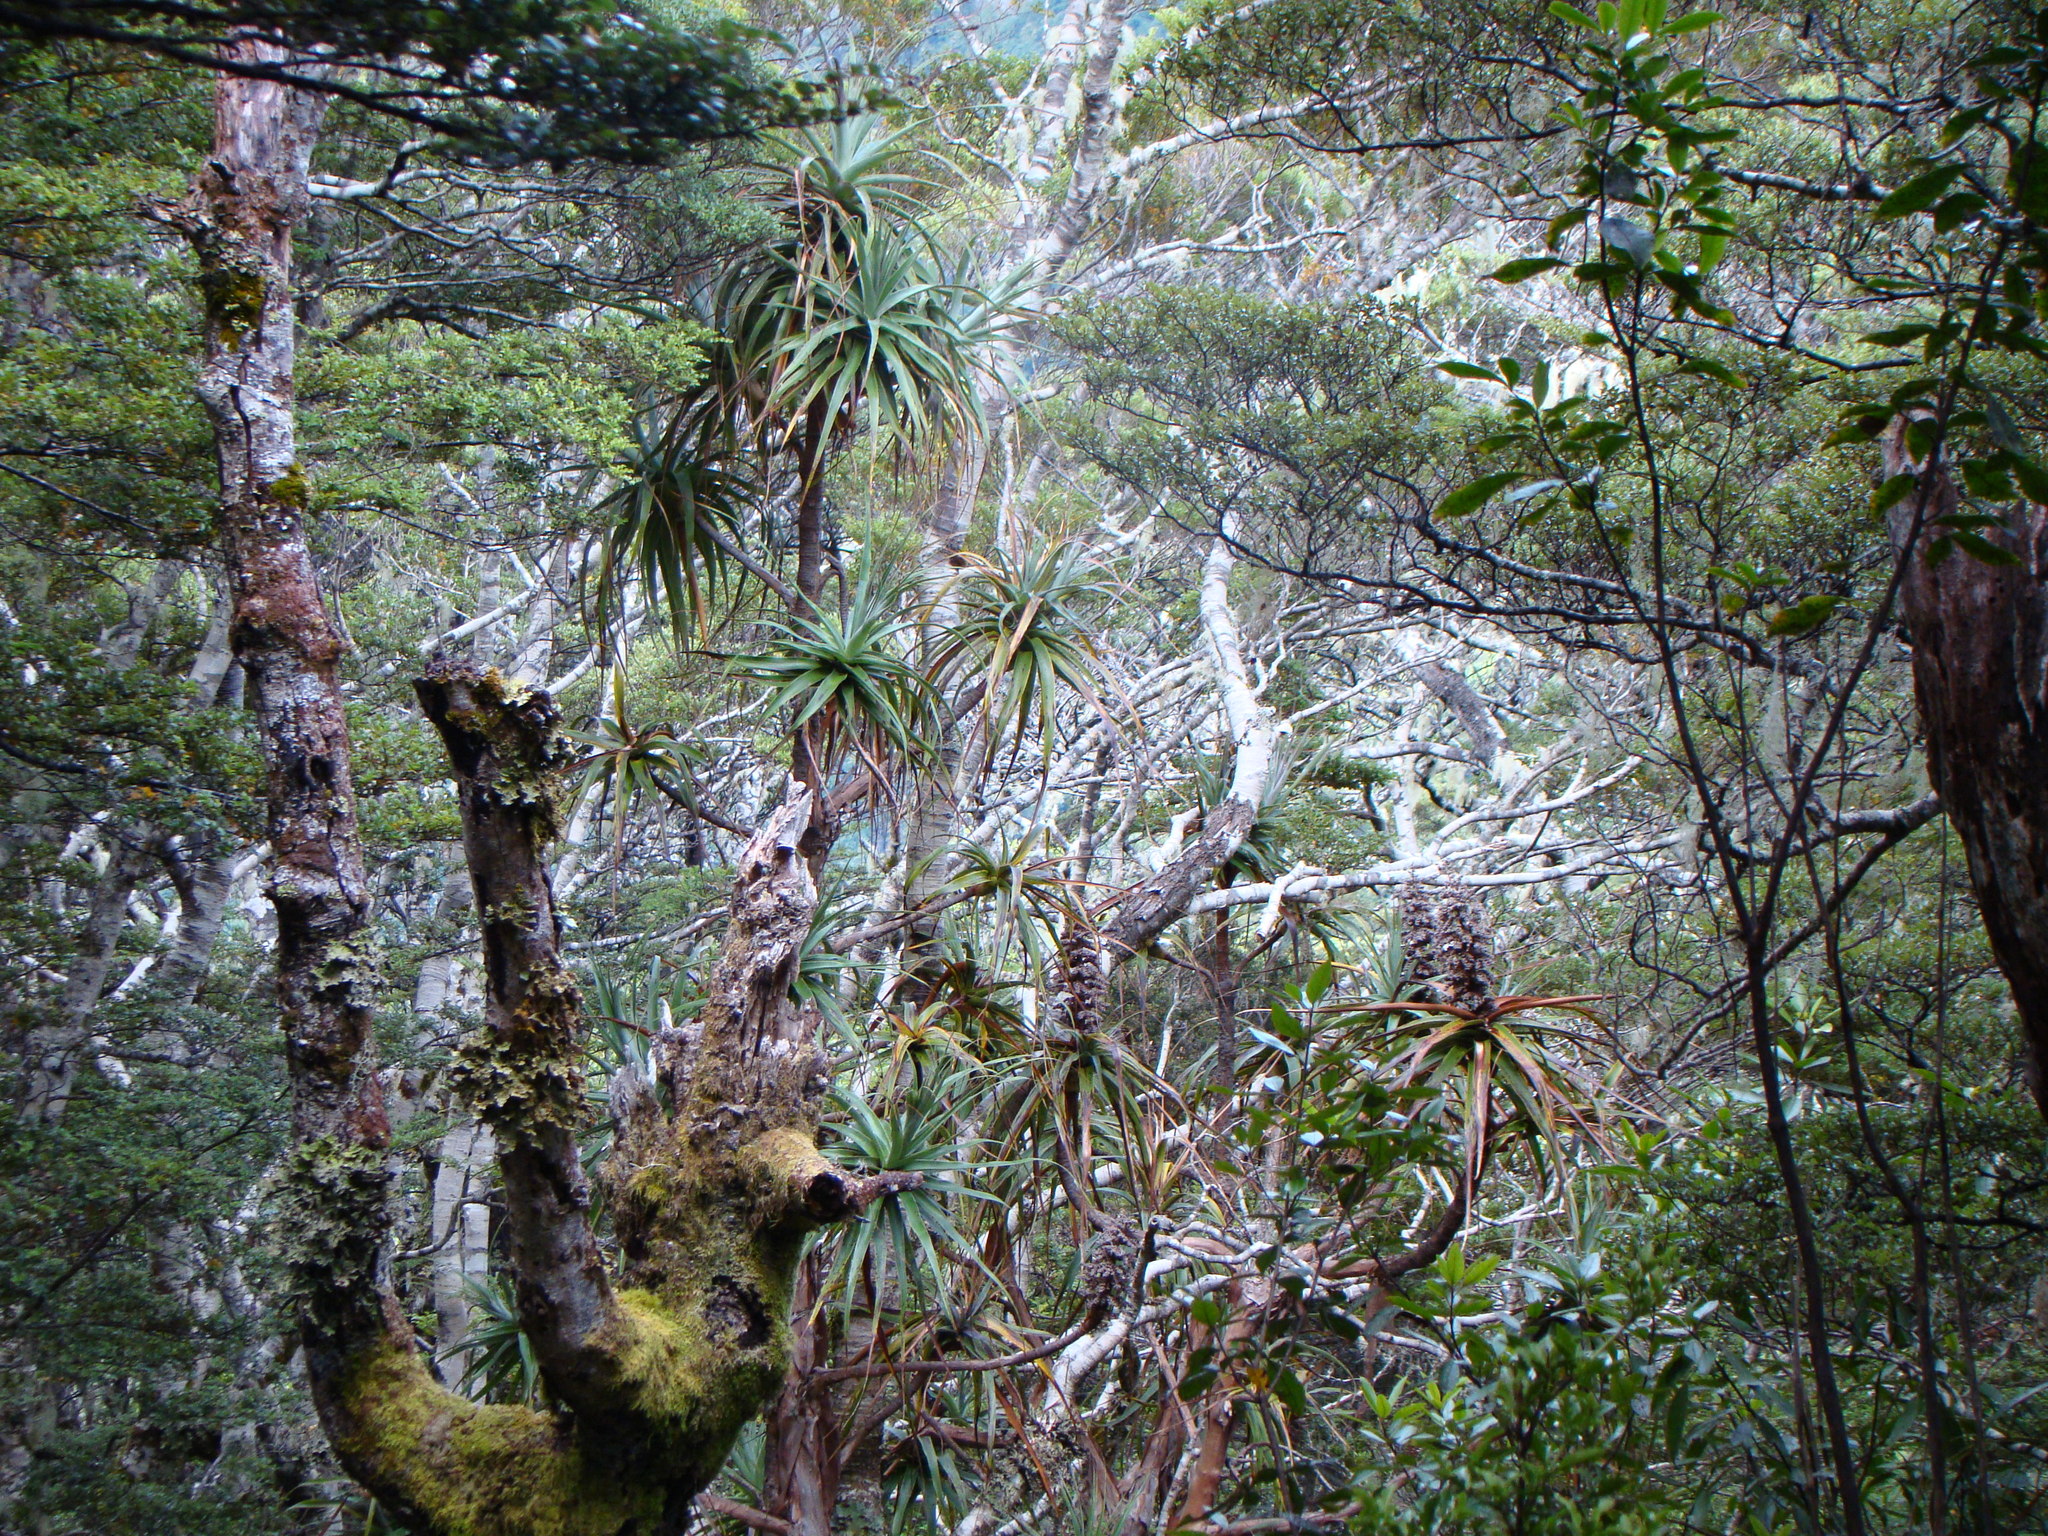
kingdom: Plantae
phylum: Tracheophyta
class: Magnoliopsida
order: Ericales
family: Ericaceae
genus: Dracophyllum
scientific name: Dracophyllum traversii
